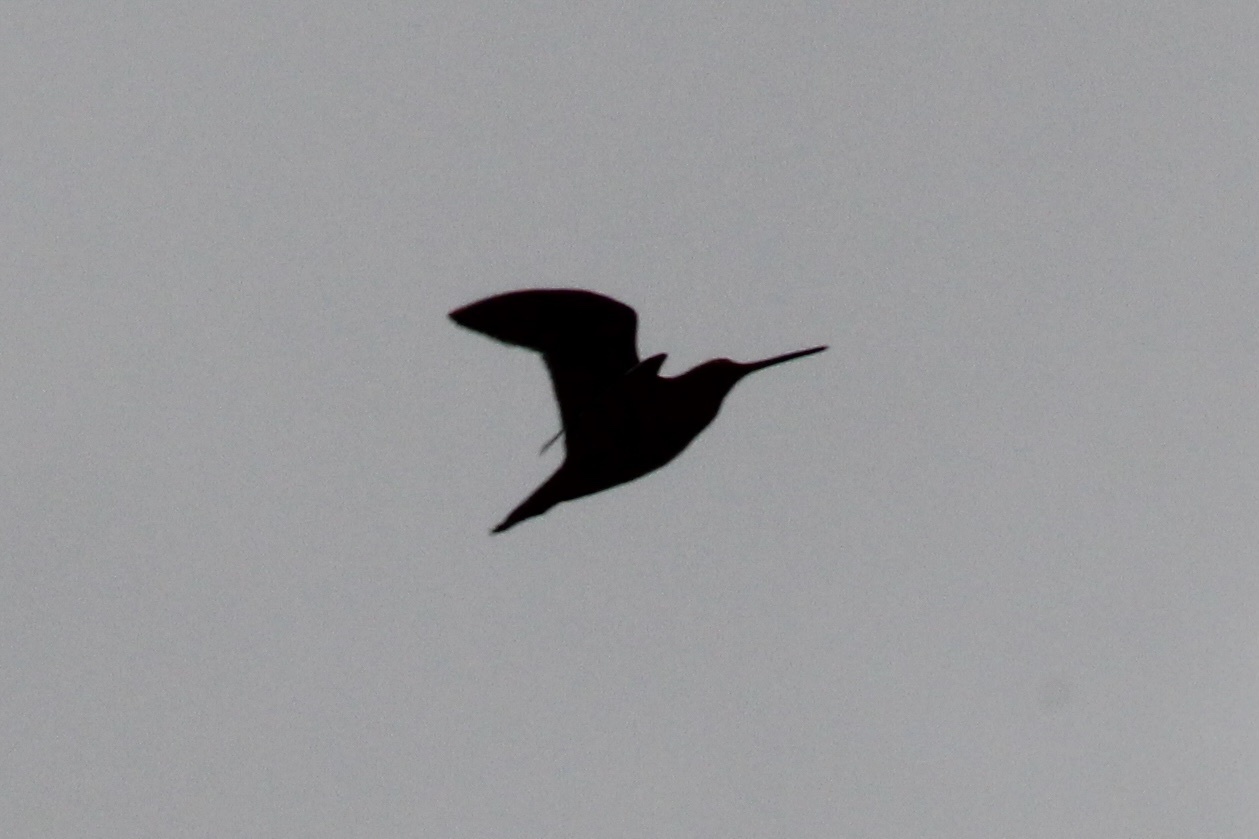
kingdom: Animalia
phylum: Chordata
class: Aves
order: Charadriiformes
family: Scolopacidae
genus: Gallinago
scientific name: Gallinago delicata
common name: Wilson's snipe
